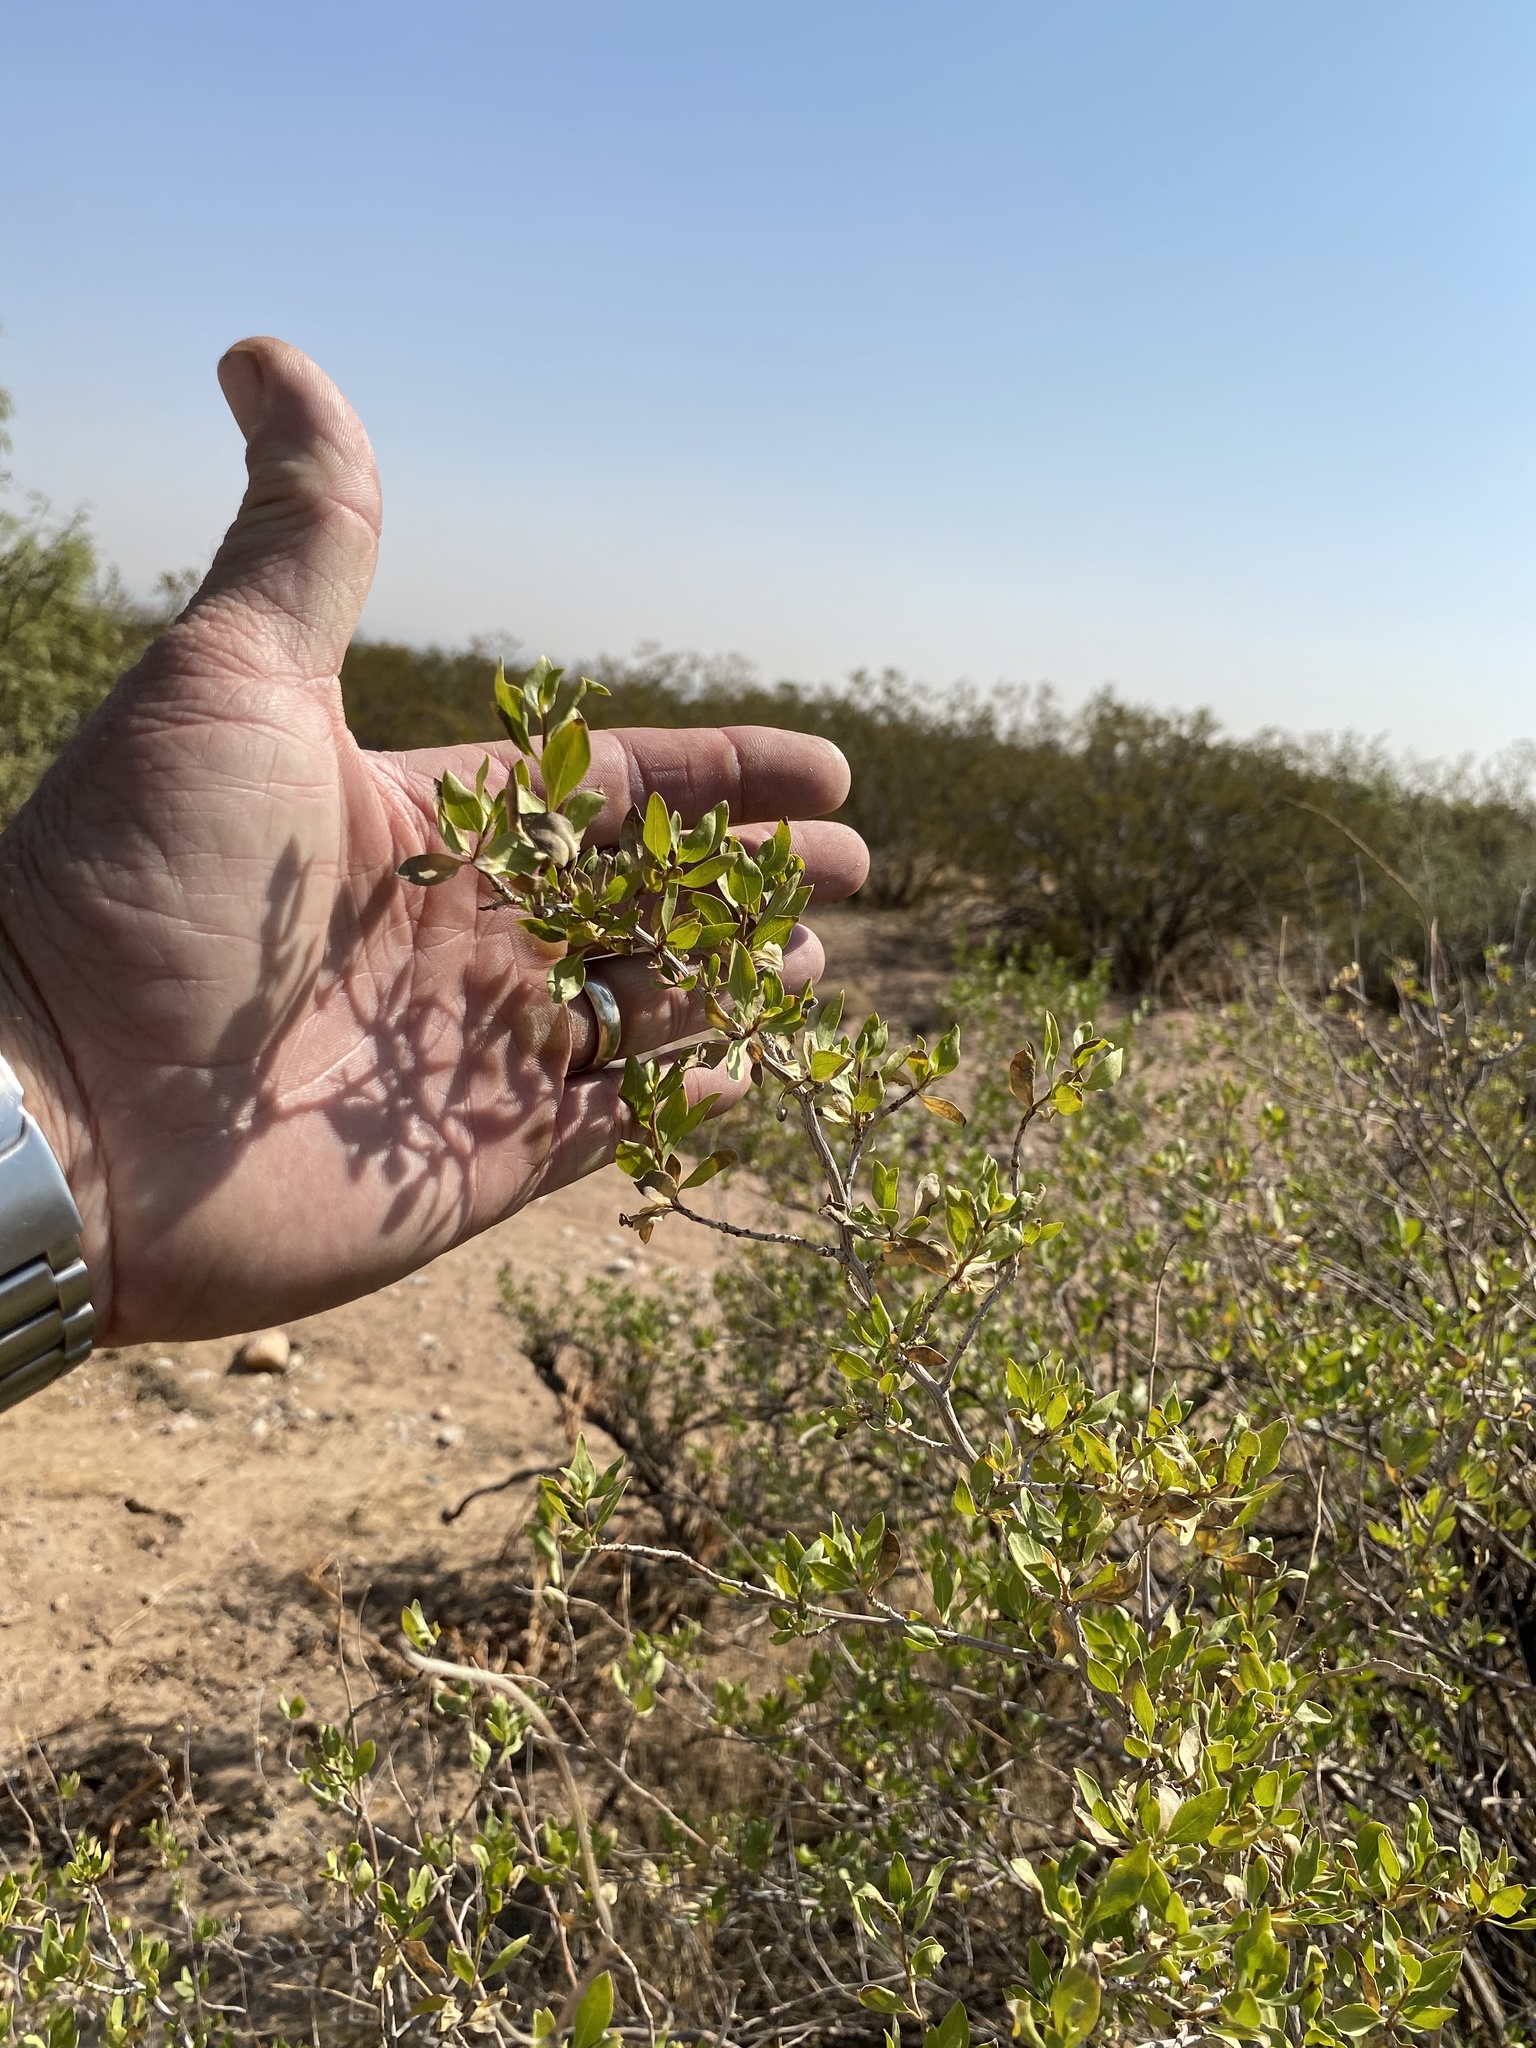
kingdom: Plantae
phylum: Tracheophyta
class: Magnoliopsida
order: Asterales
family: Asteraceae
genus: Flourensia
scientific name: Flourensia cernua
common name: Varnishbush
